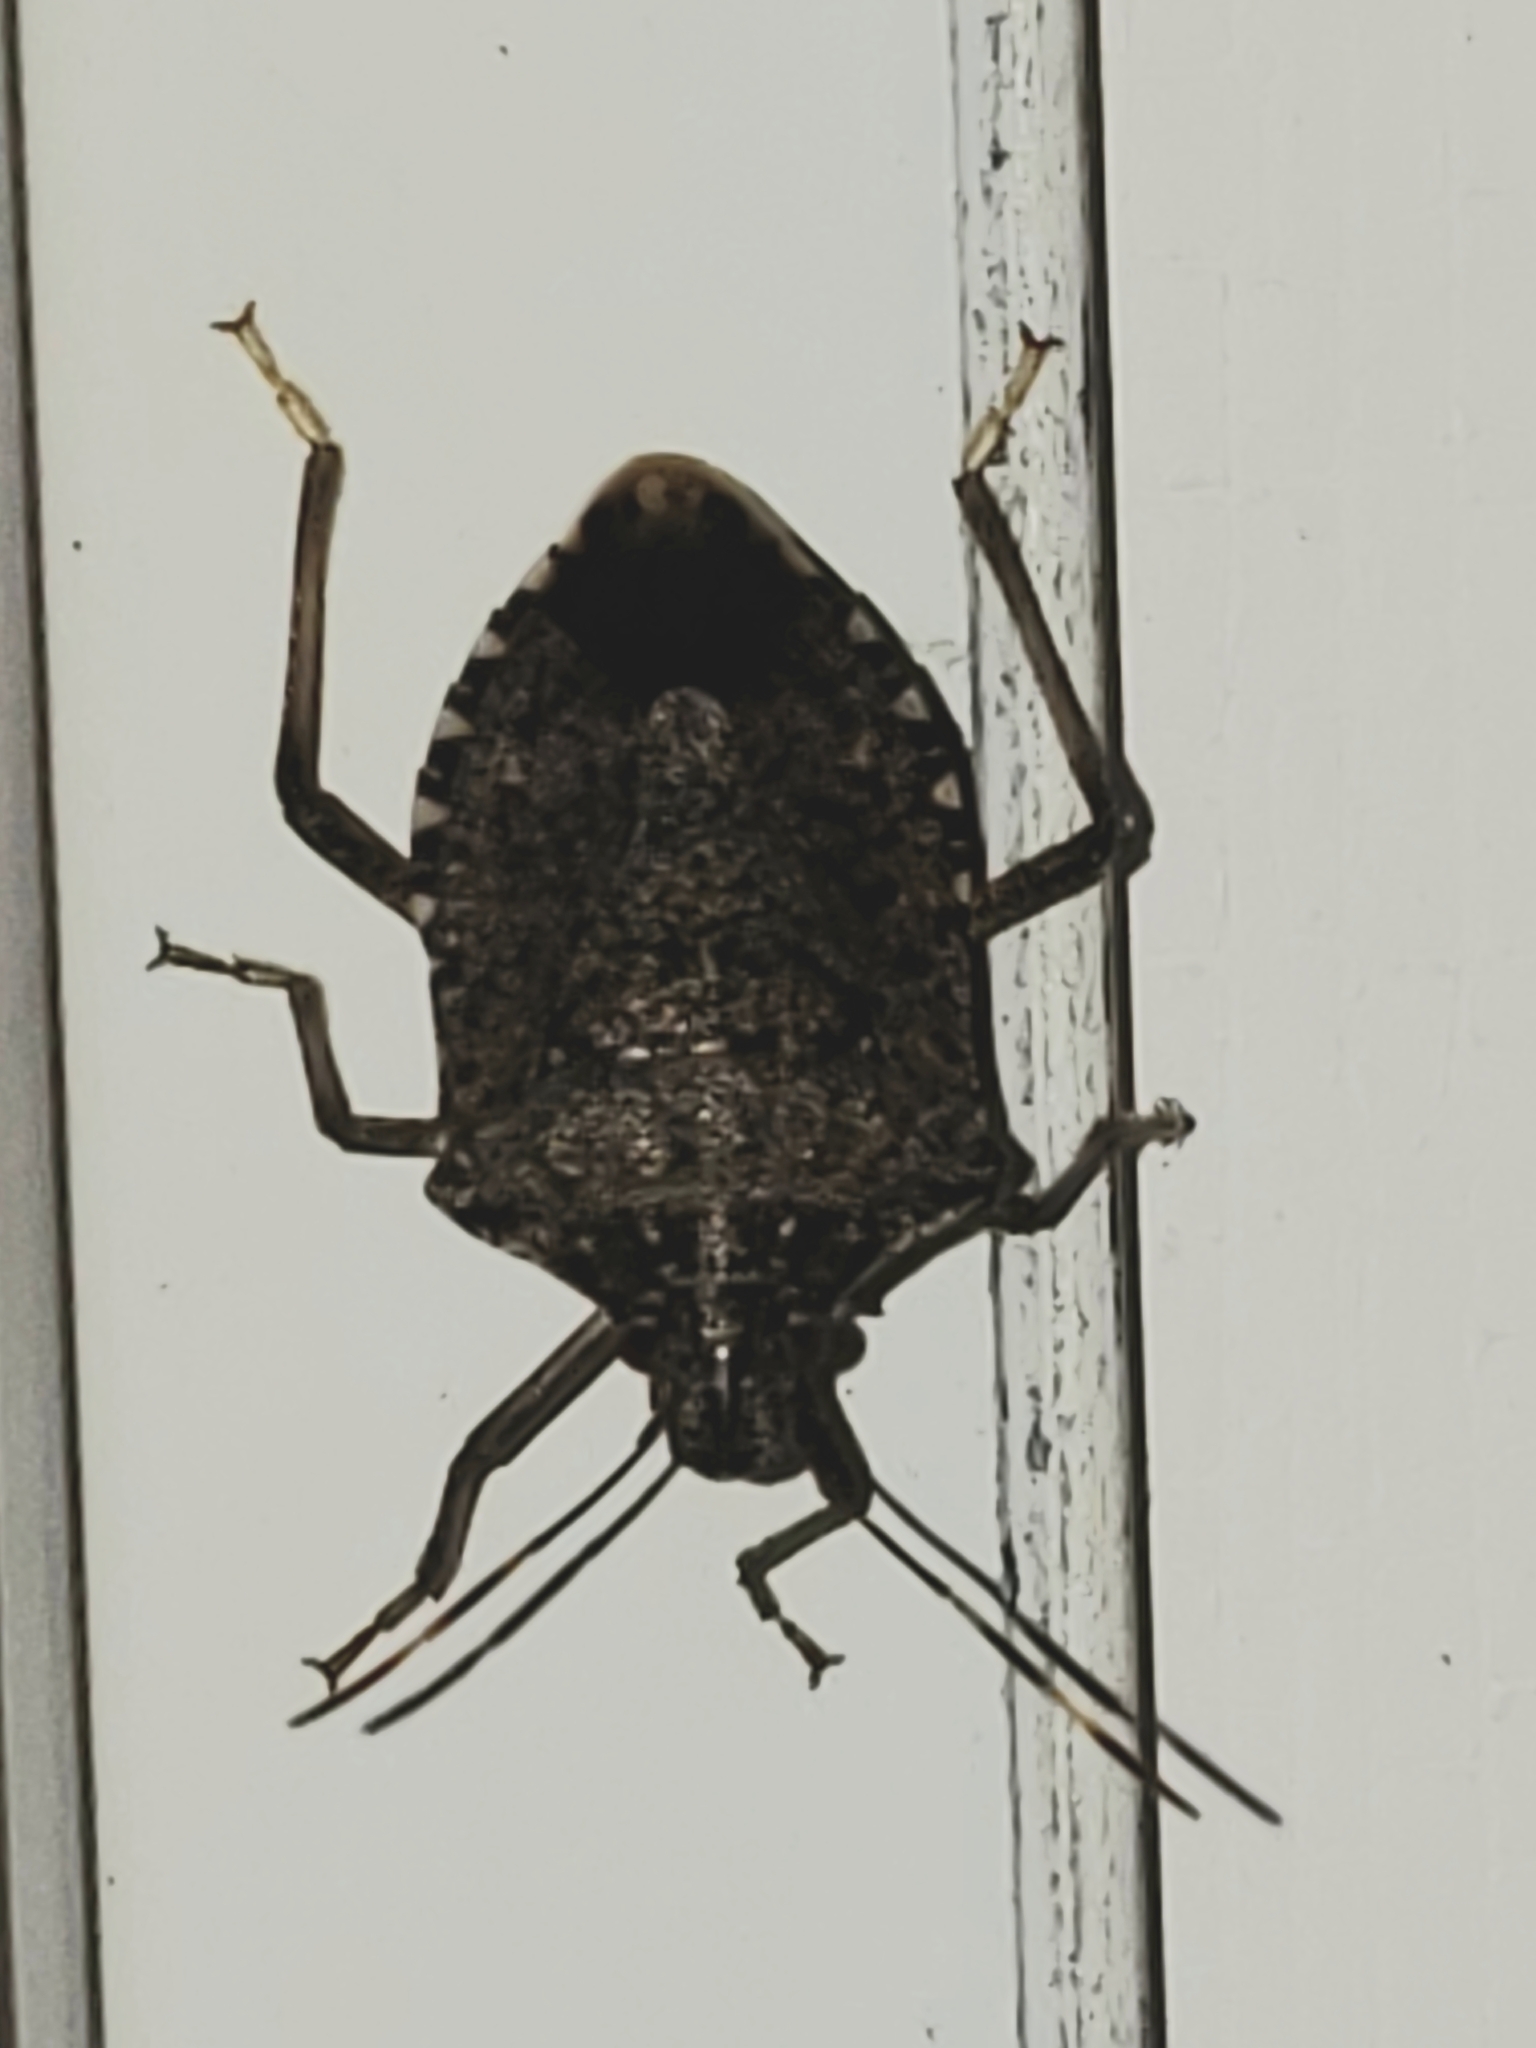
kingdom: Animalia
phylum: Arthropoda
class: Insecta
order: Hemiptera
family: Pentatomidae
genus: Halyomorpha
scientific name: Halyomorpha halys
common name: Brown marmorated stink bug
